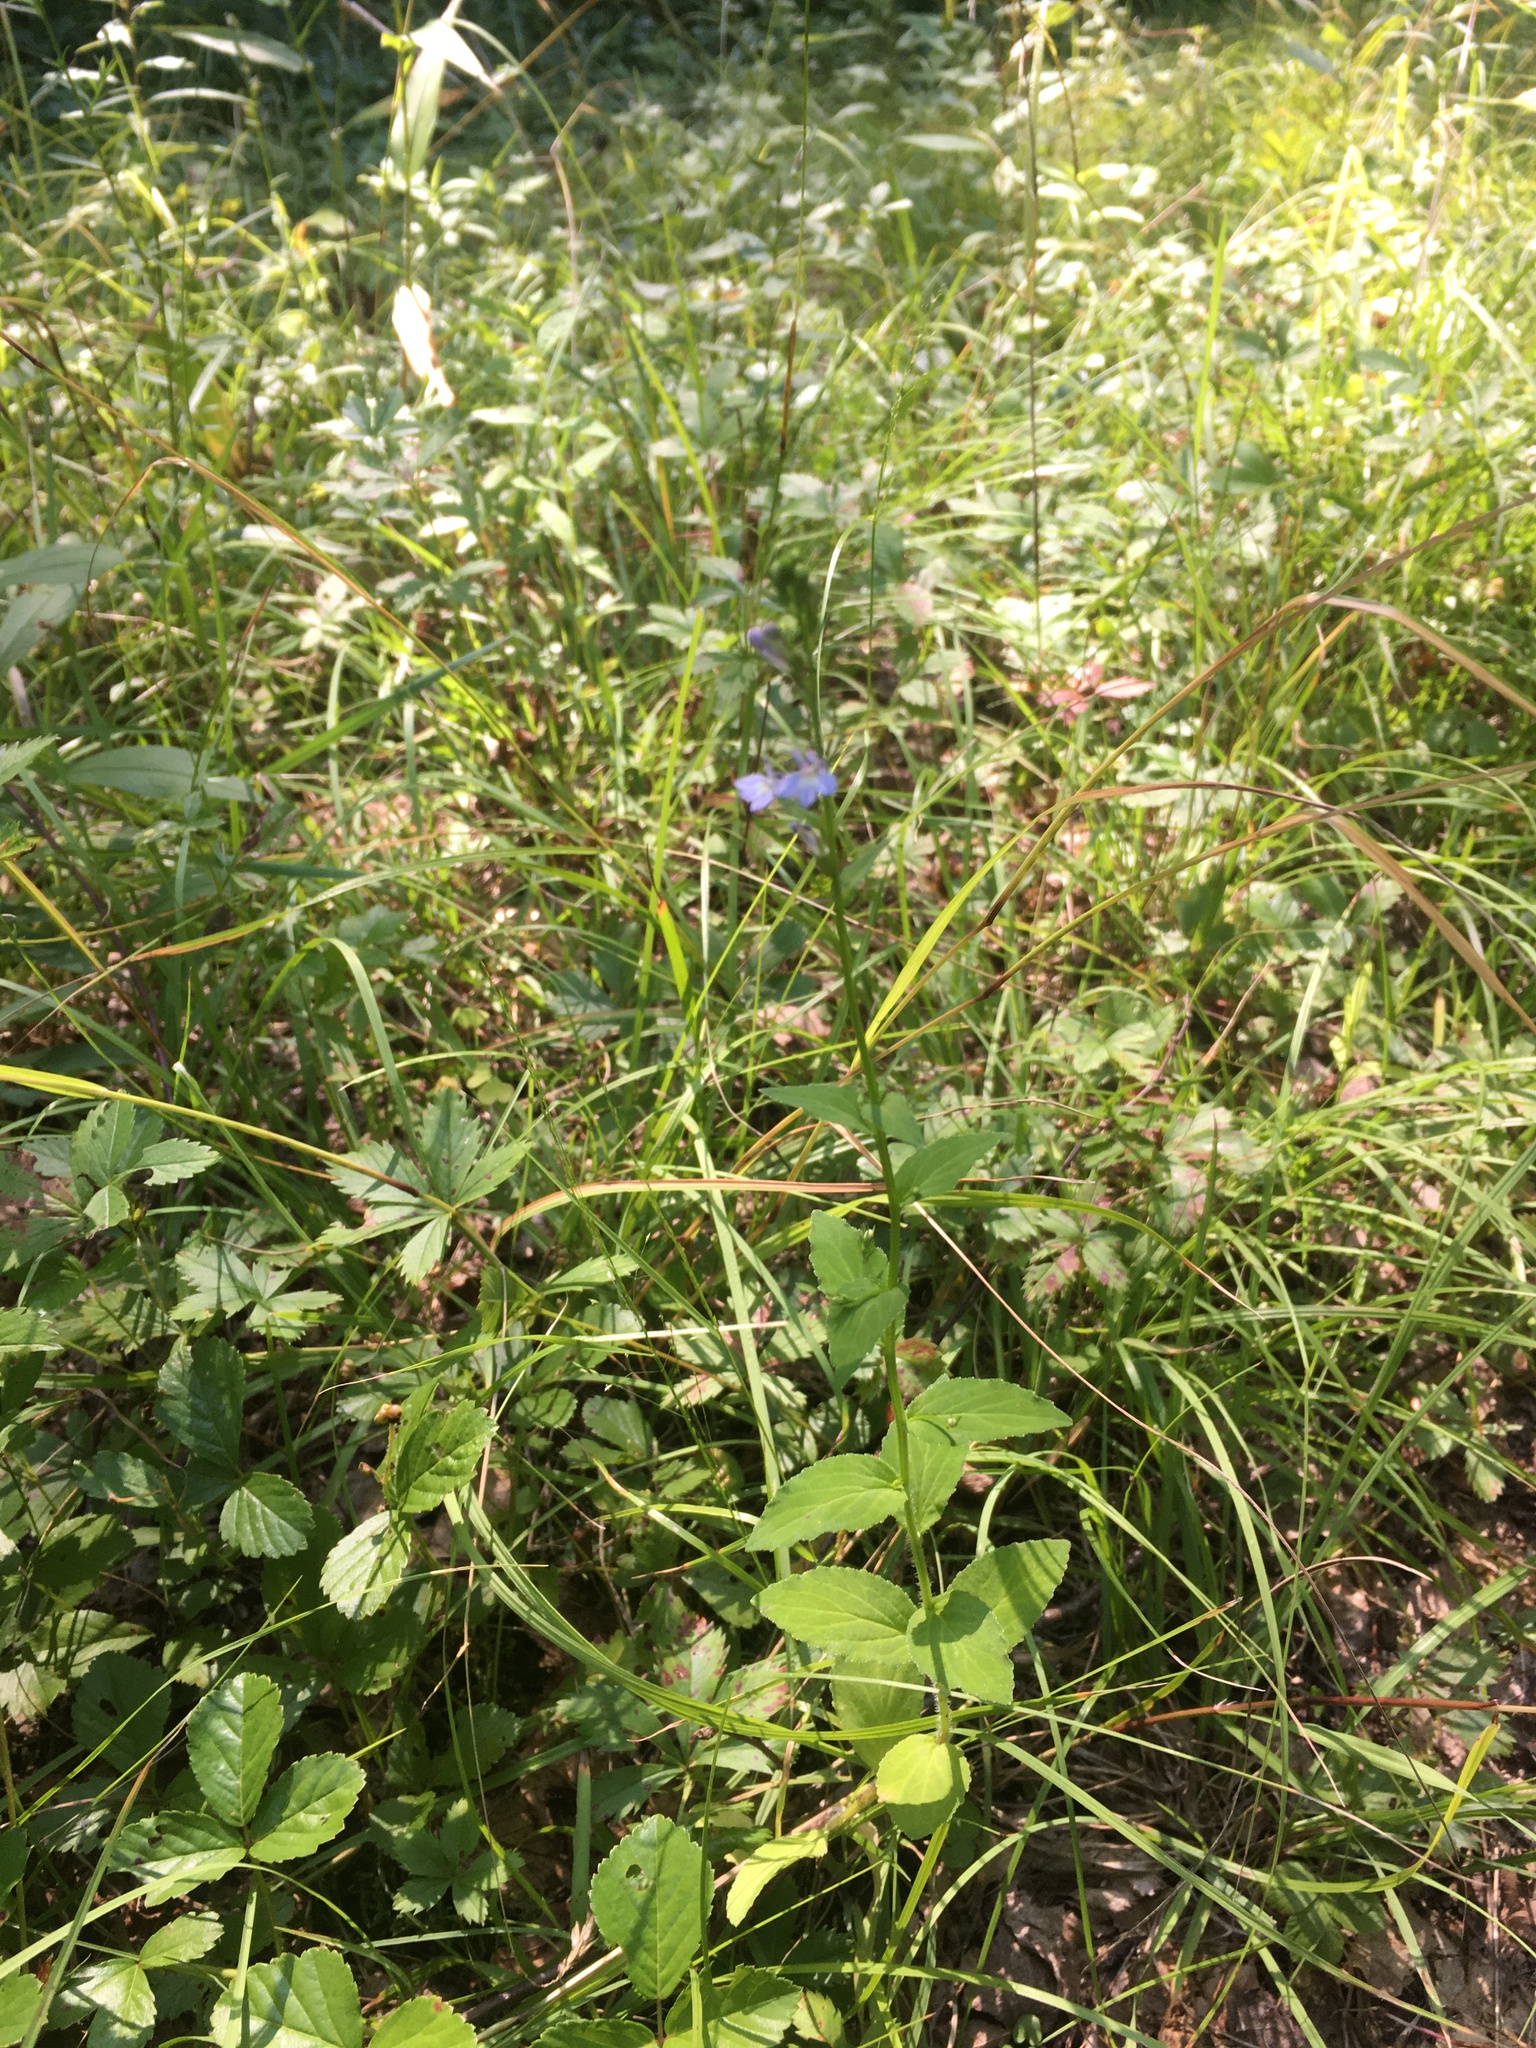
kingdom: Plantae
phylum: Tracheophyta
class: Magnoliopsida
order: Asterales
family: Campanulaceae
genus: Lobelia
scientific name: Lobelia inflata
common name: Indian tobacco
